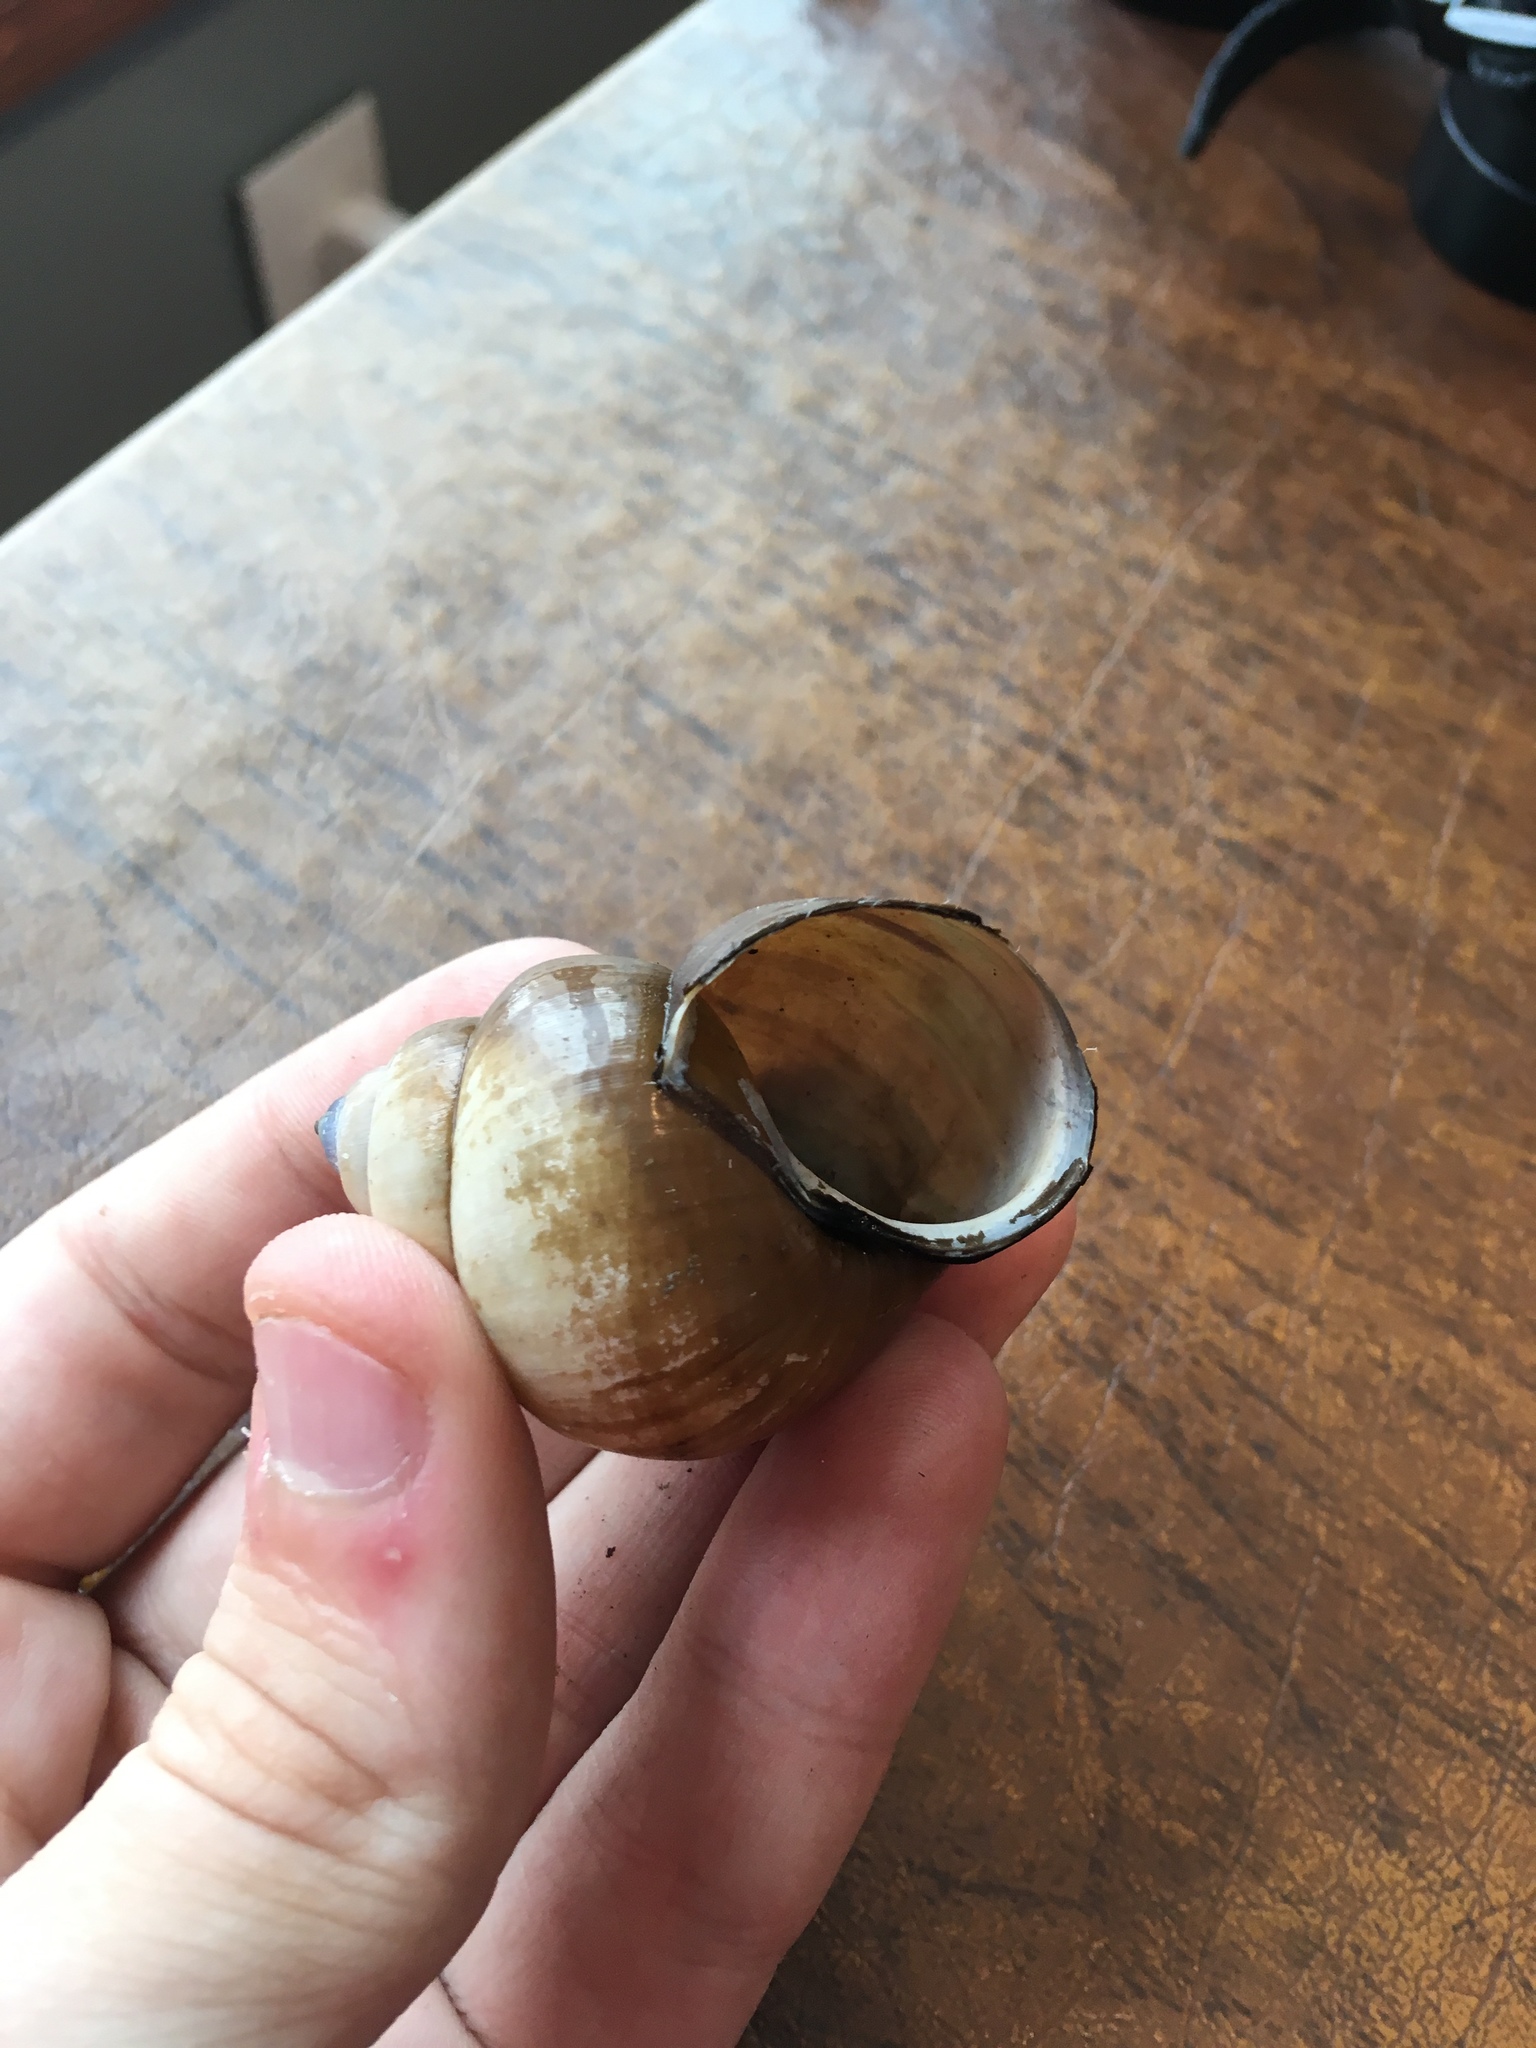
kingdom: Animalia
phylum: Mollusca
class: Gastropoda
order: Architaenioglossa
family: Viviparidae
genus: Cipangopaludina
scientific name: Cipangopaludina chinensis
